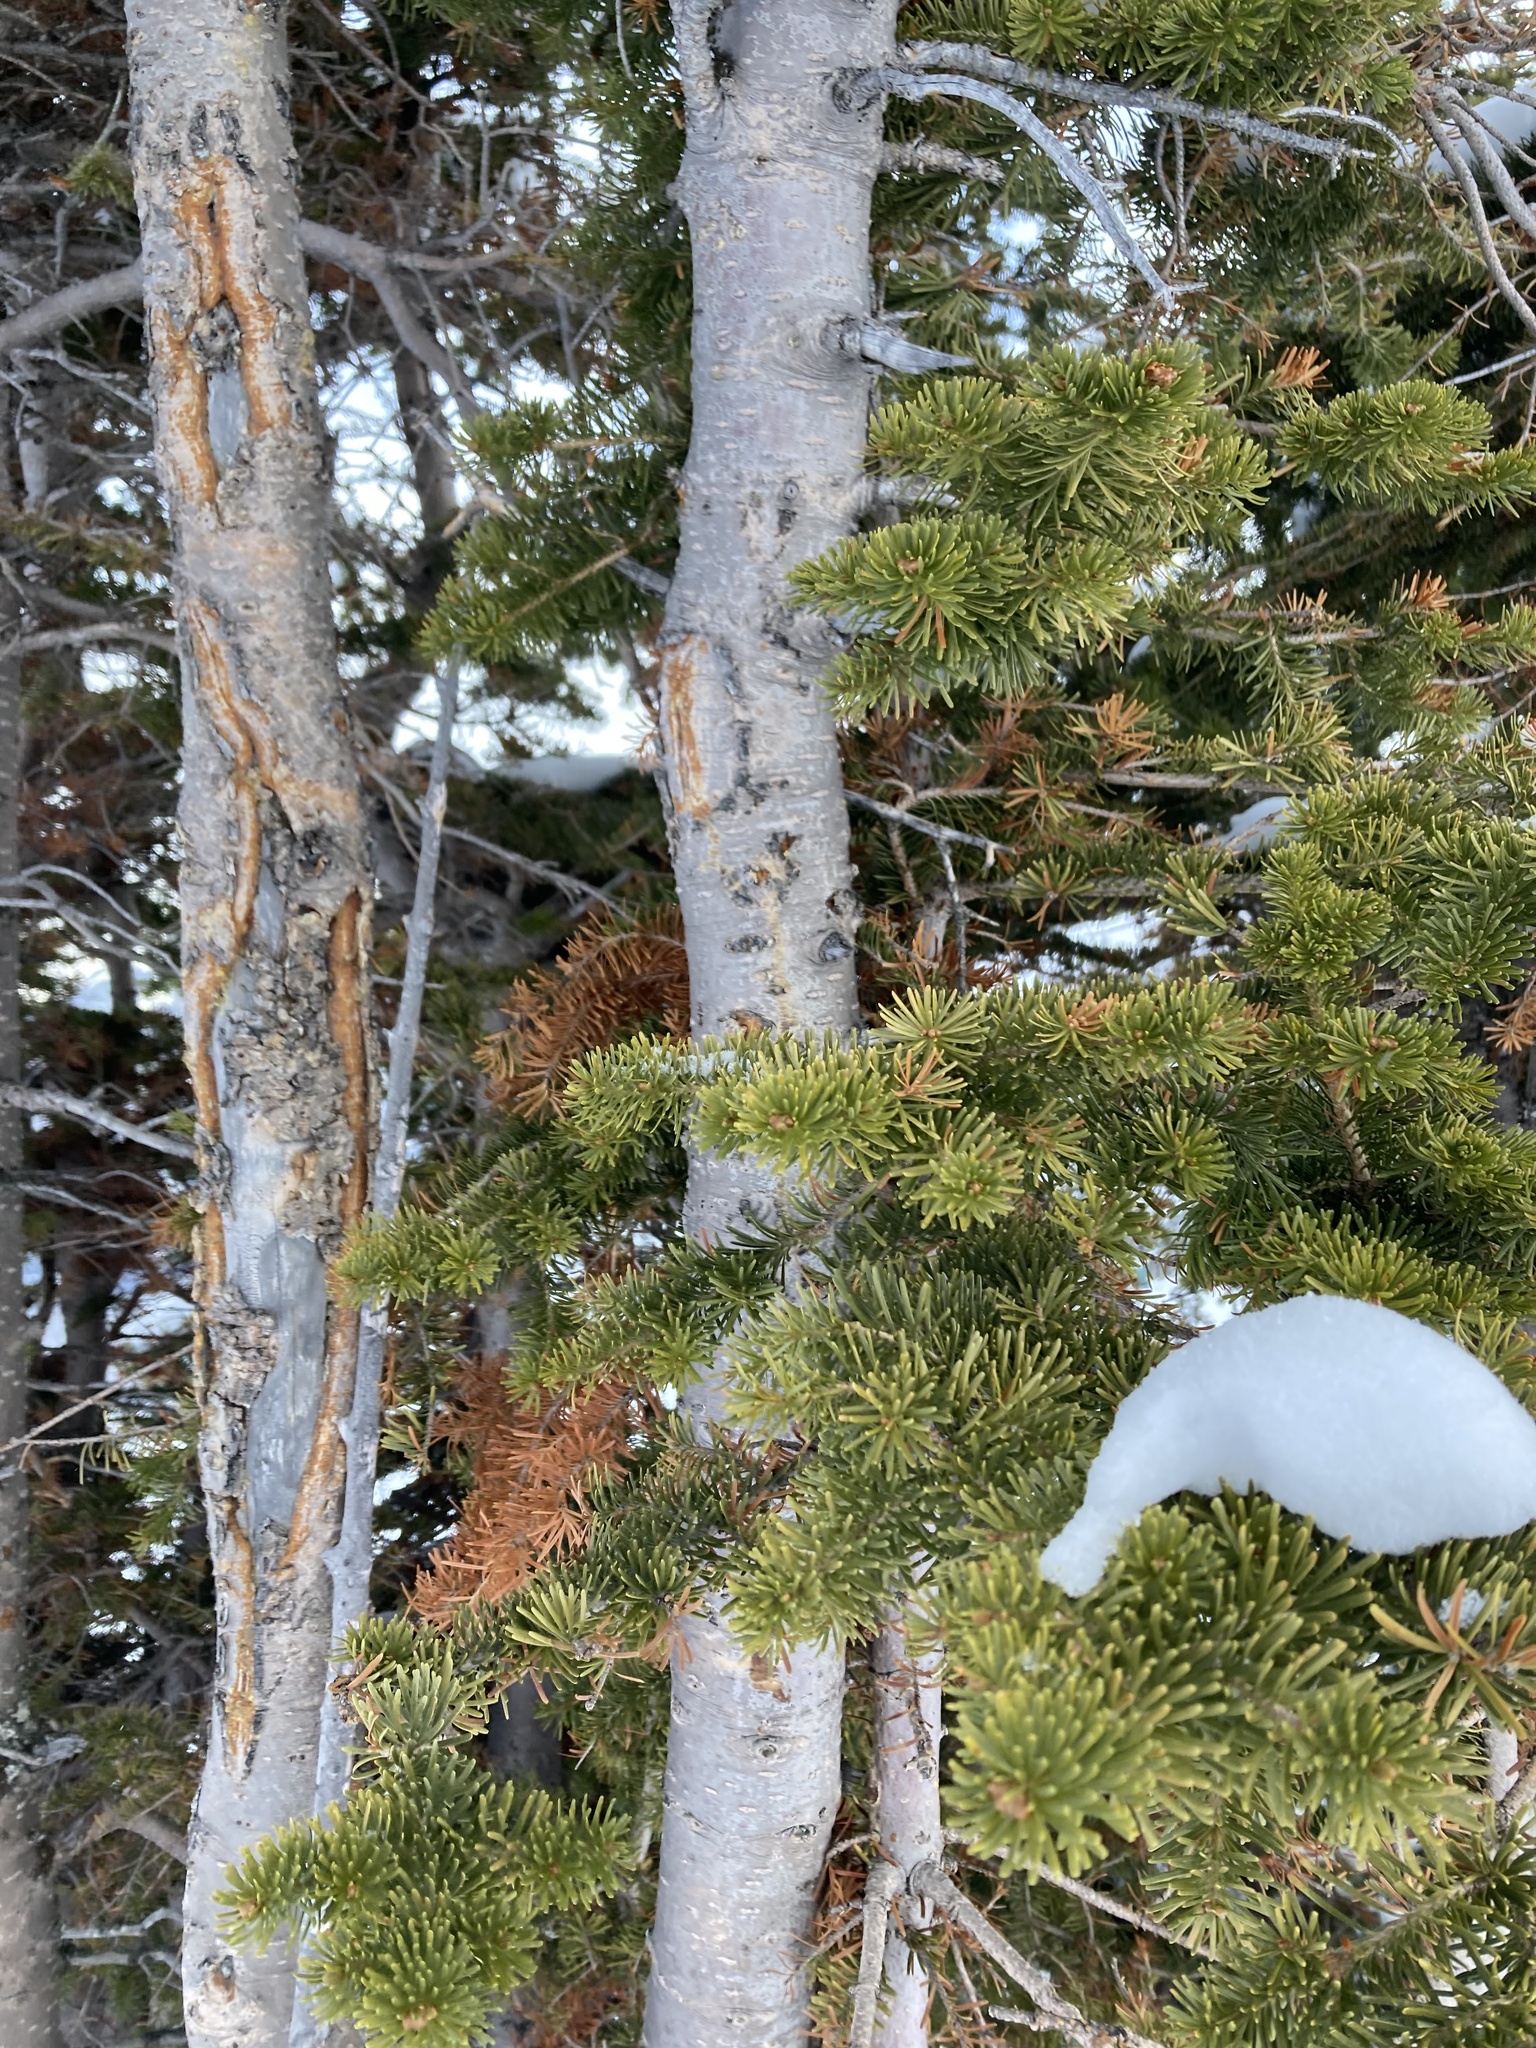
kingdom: Plantae
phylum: Tracheophyta
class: Pinopsida
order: Pinales
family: Pinaceae
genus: Abies
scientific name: Abies lasiocarpa
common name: Subalpine fir
